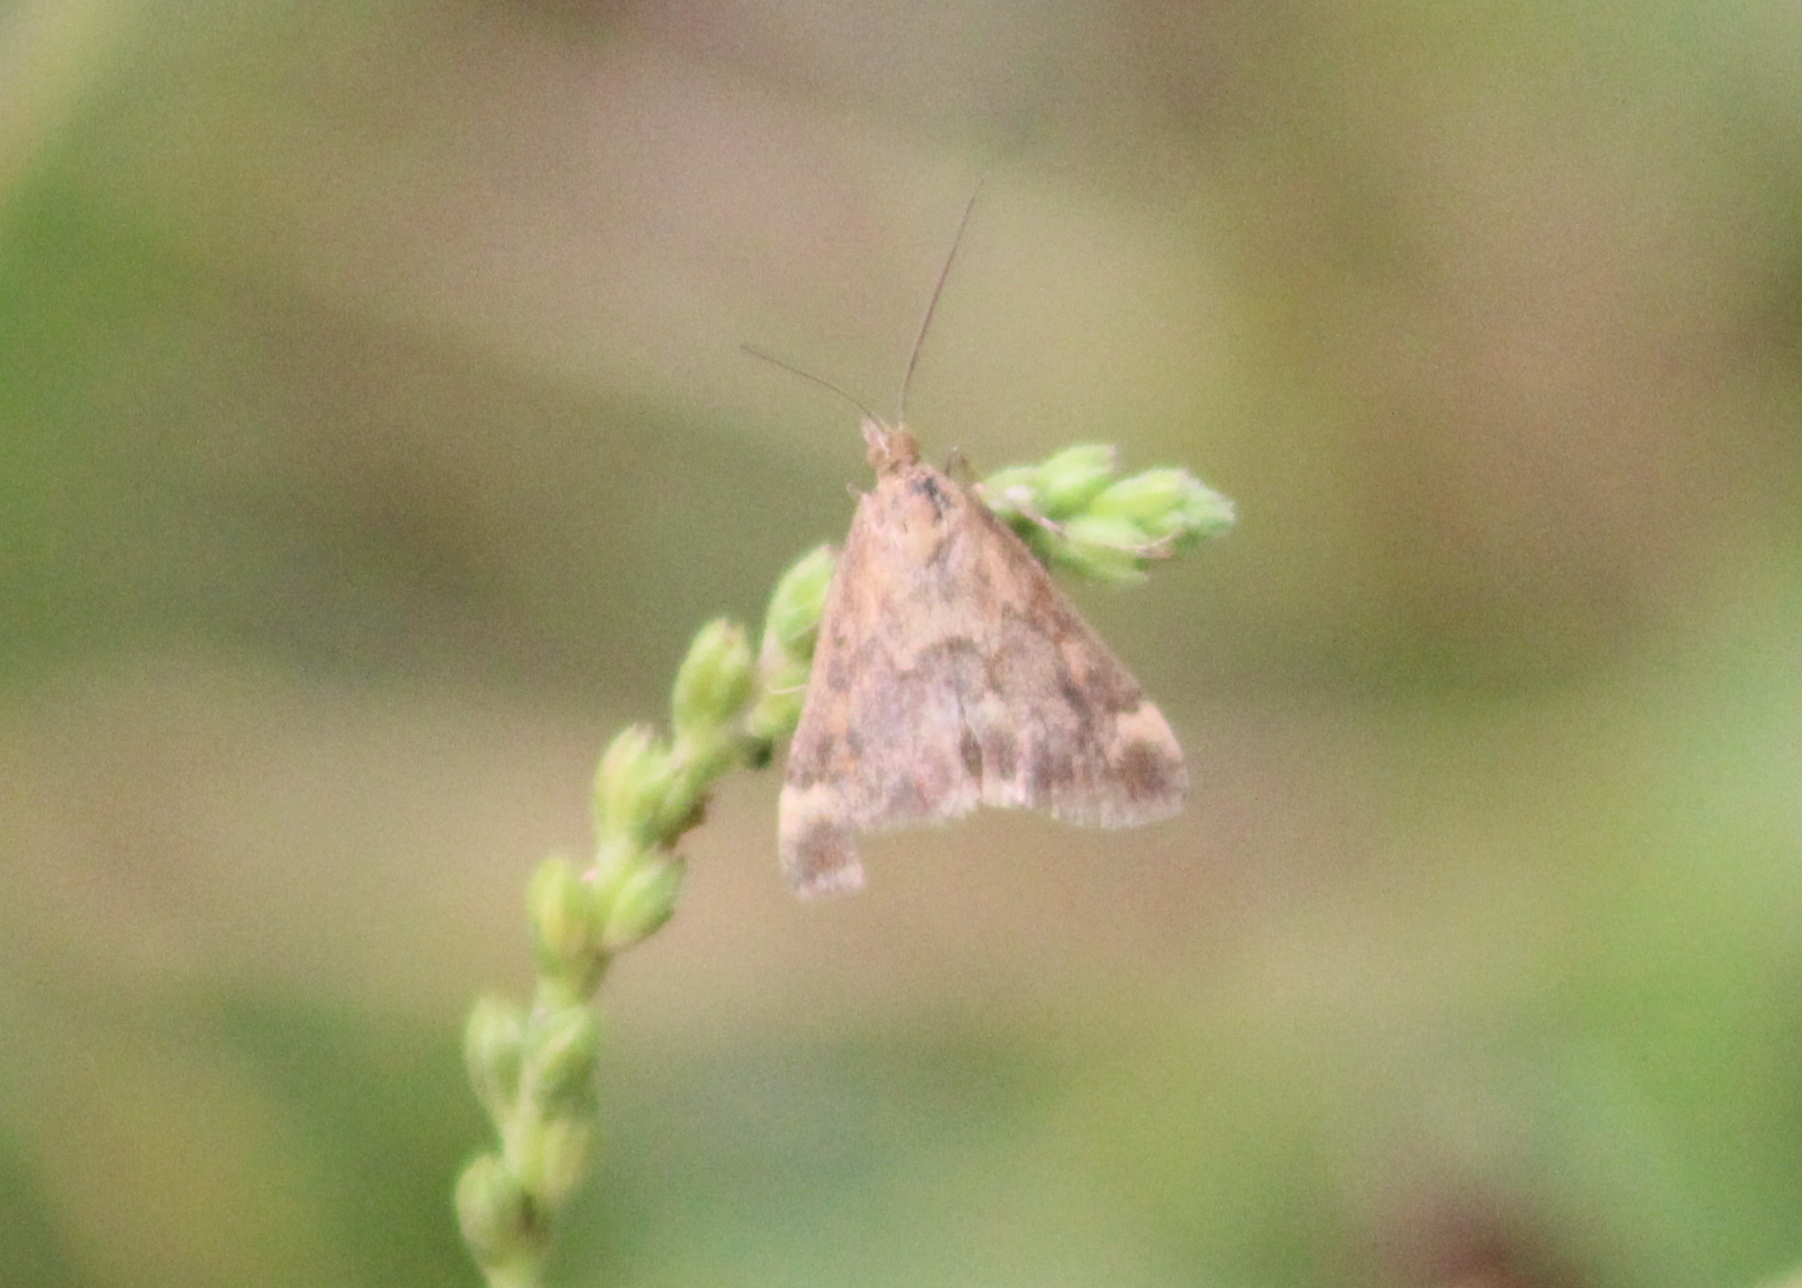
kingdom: Animalia
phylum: Arthropoda
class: Insecta
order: Lepidoptera
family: Crambidae
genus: Pyrausta
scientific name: Pyrausta despicata
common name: Straw-barred pearl
